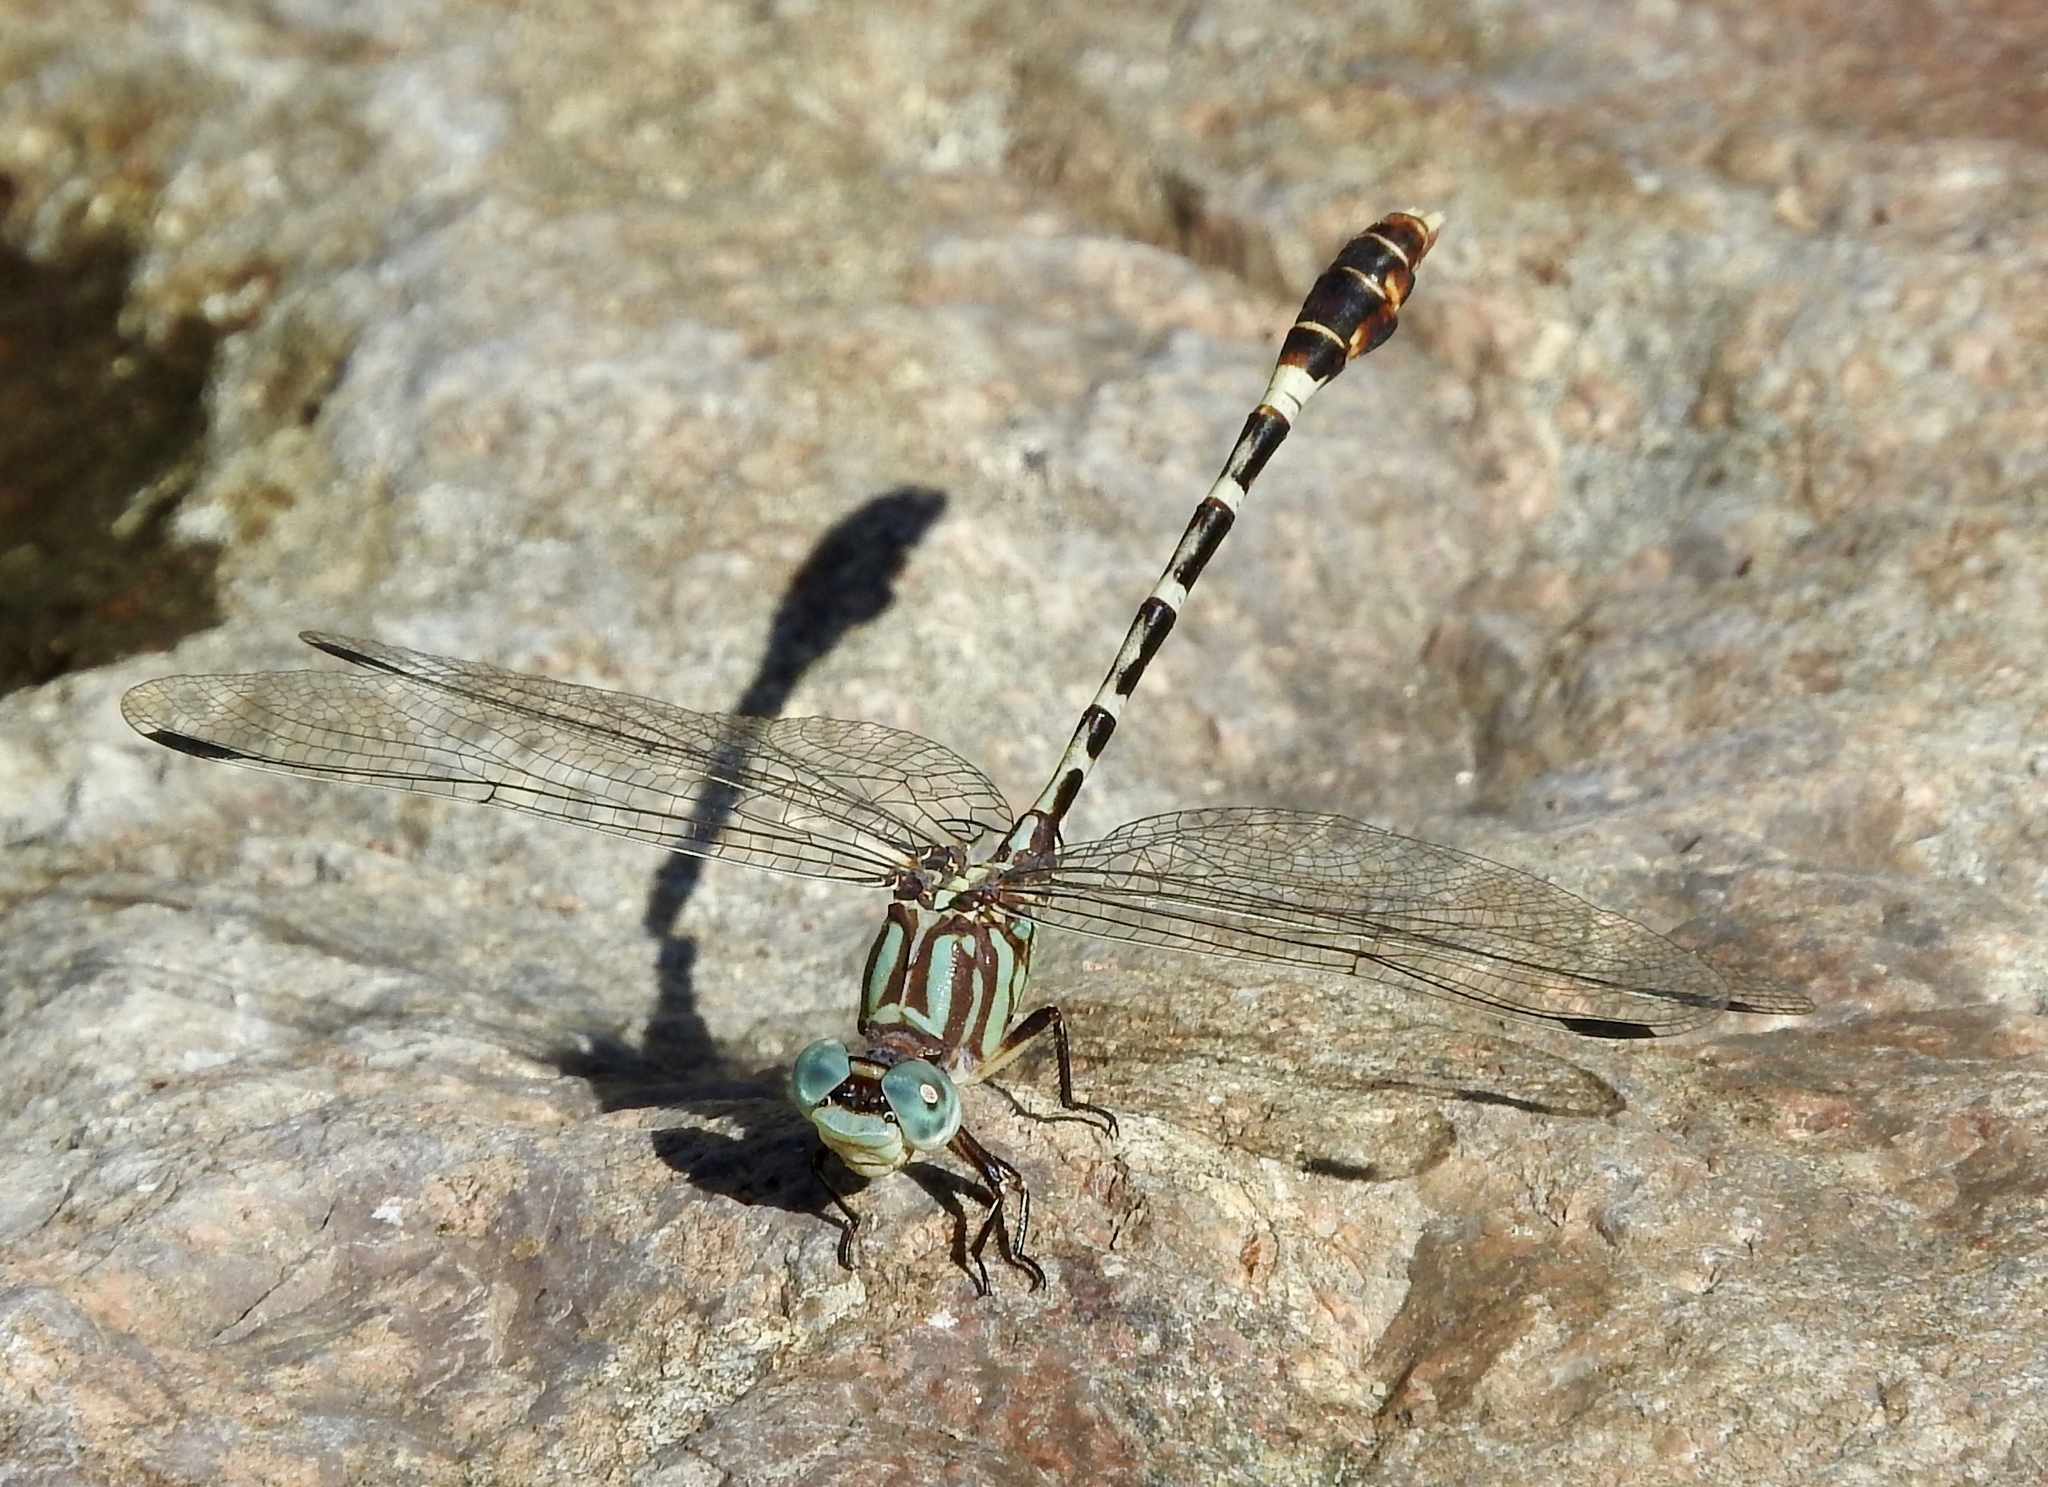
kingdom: Animalia
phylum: Arthropoda
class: Insecta
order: Odonata
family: Gomphidae
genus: Erpetogomphus
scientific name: Erpetogomphus lampropeltis
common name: Serpent ringtail
